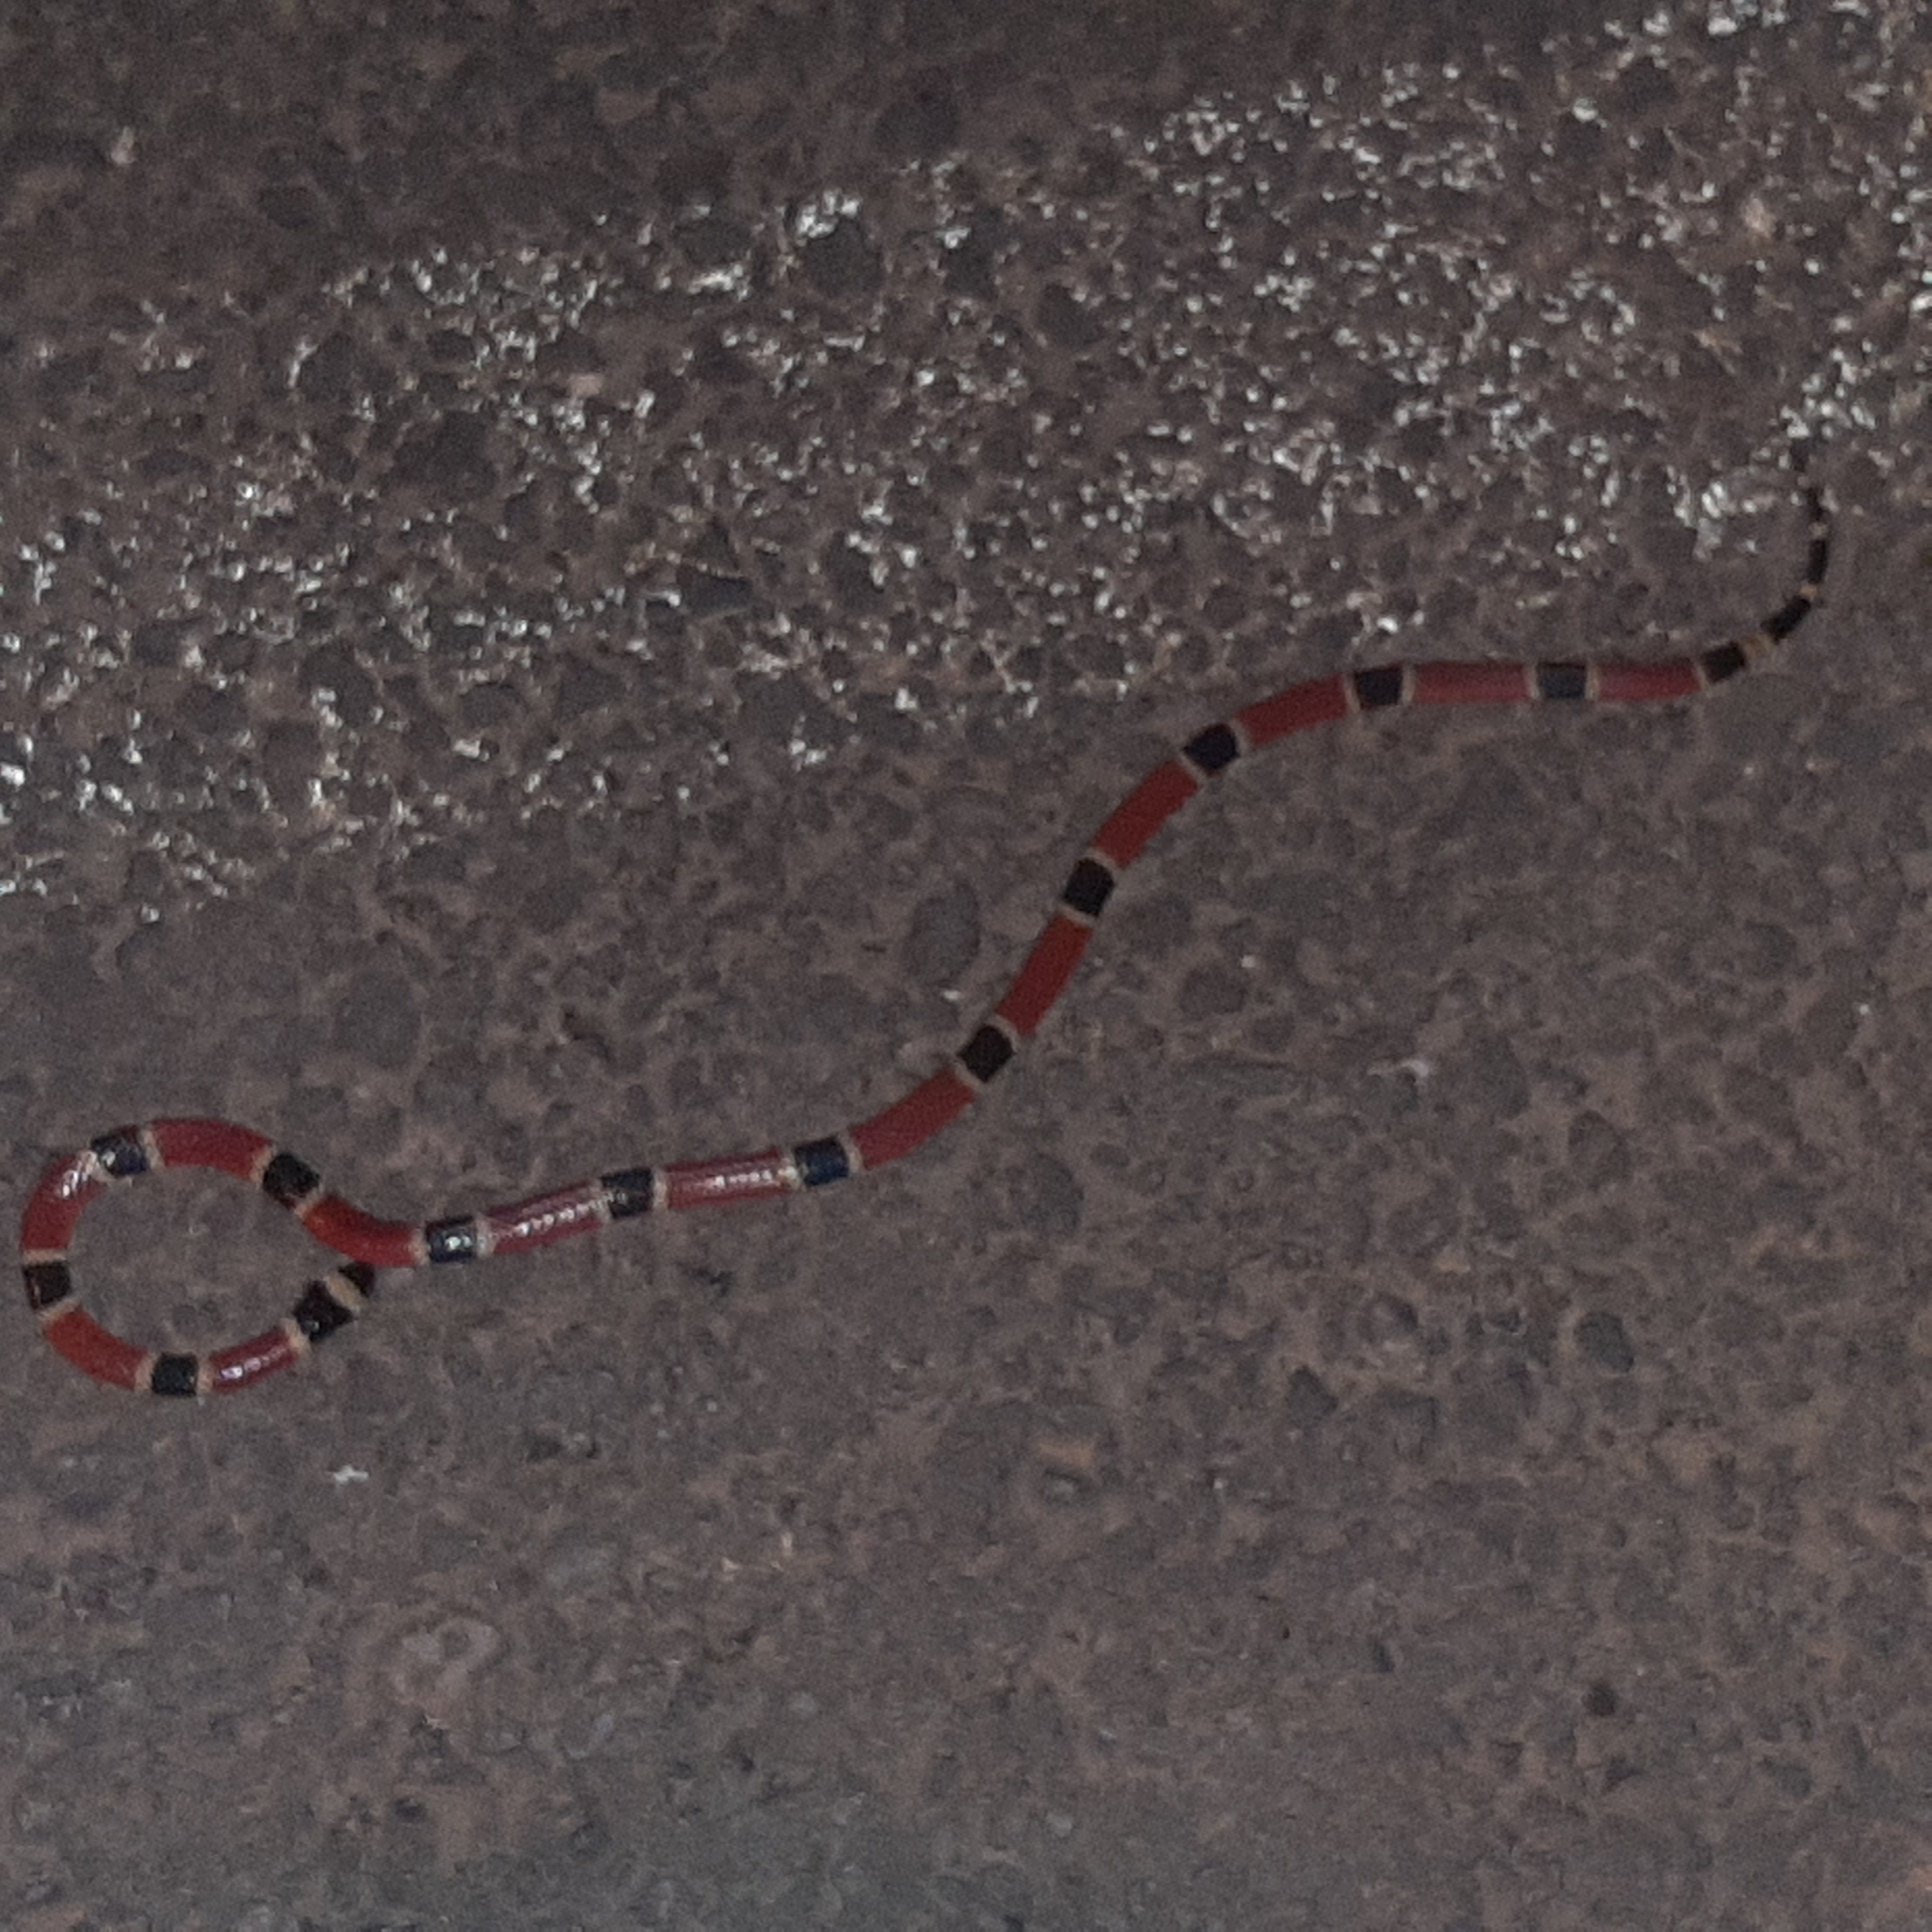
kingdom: Animalia
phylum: Chordata
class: Squamata
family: Elapidae
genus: Micrurus
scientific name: Micrurus nigrocinctus
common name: Babaspul [babaspul]
